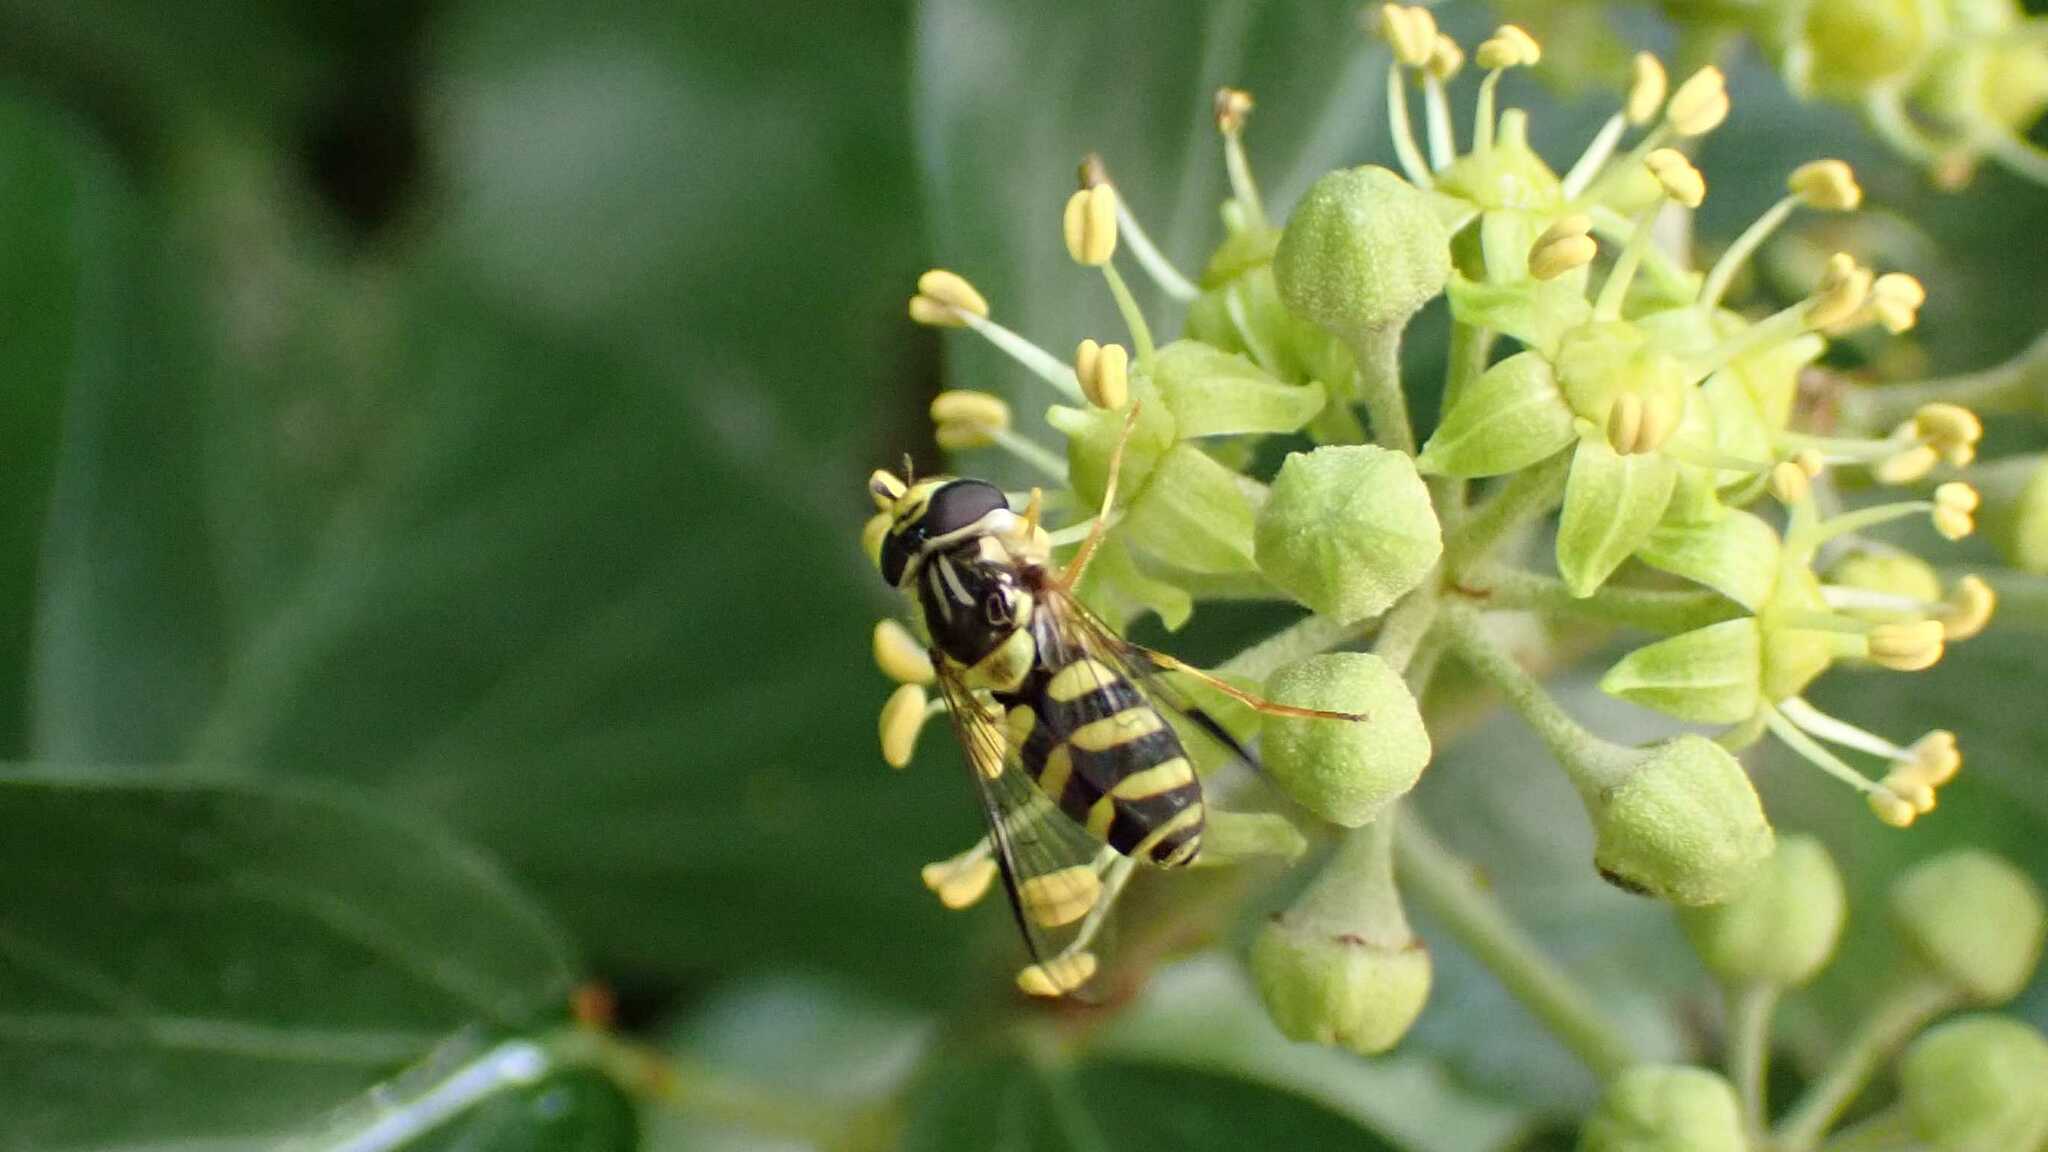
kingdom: Animalia
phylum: Arthropoda
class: Insecta
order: Diptera
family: Syrphidae
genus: Dasysyrphus
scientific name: Dasysyrphus albostriatus
